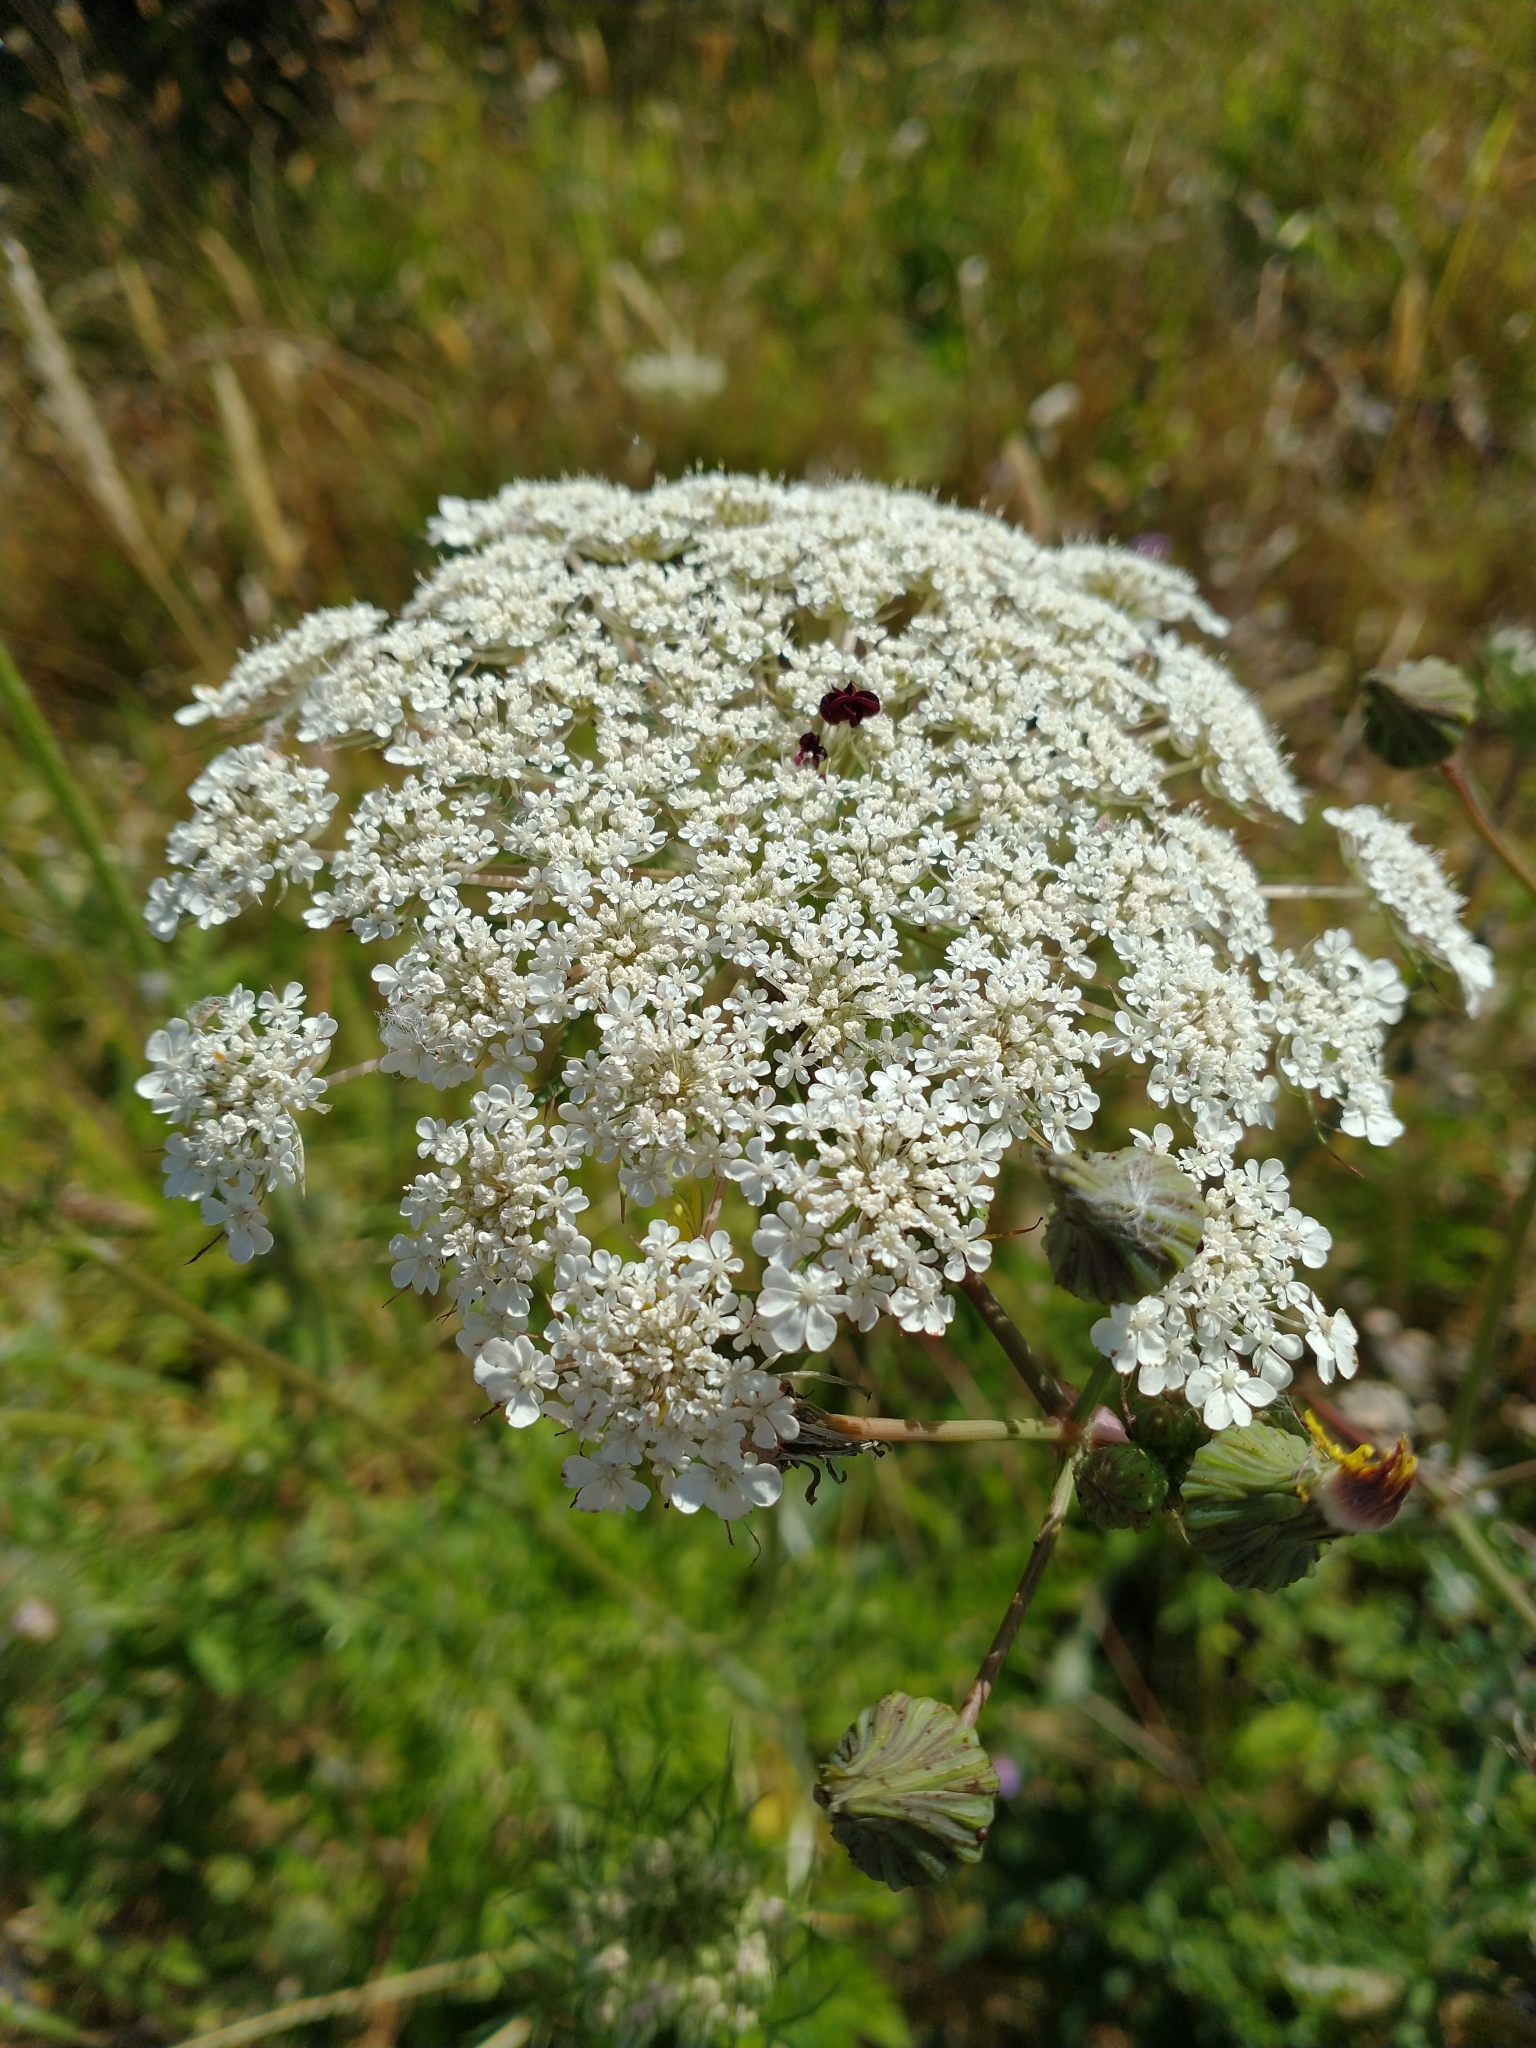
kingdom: Plantae
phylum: Tracheophyta
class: Magnoliopsida
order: Apiales
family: Apiaceae
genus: Daucus
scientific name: Daucus carota
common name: Wild carrot
